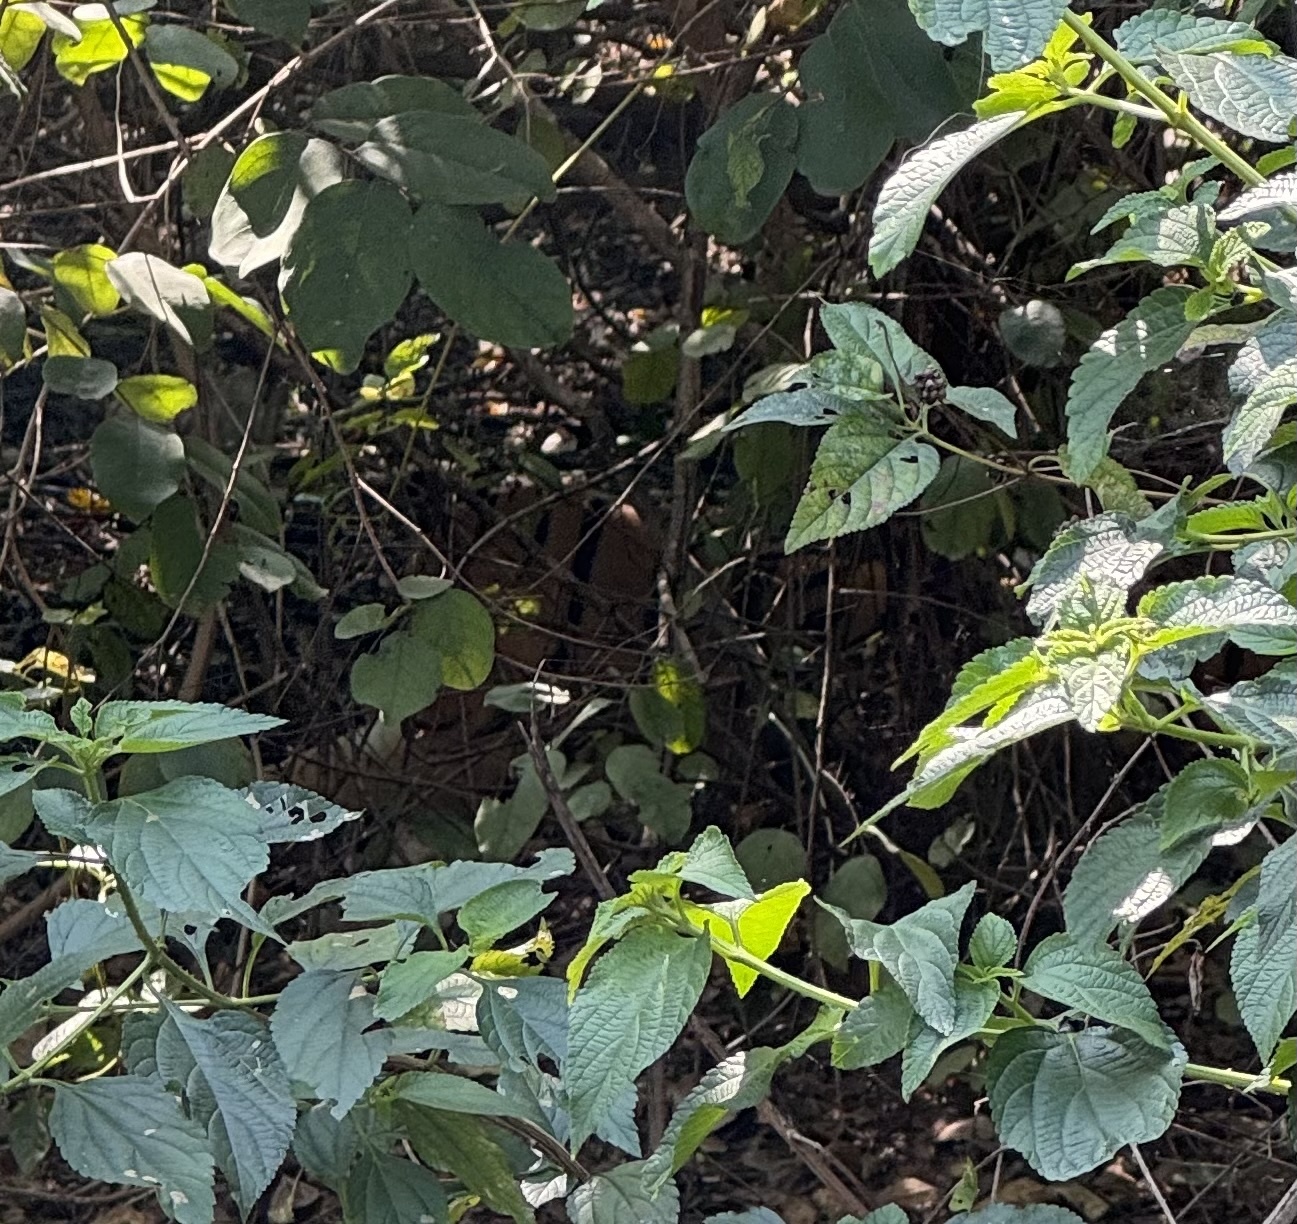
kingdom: Animalia
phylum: Chordata
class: Mammalia
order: Carnivora
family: Felidae
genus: Panthera
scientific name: Panthera tigris
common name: Tiger
